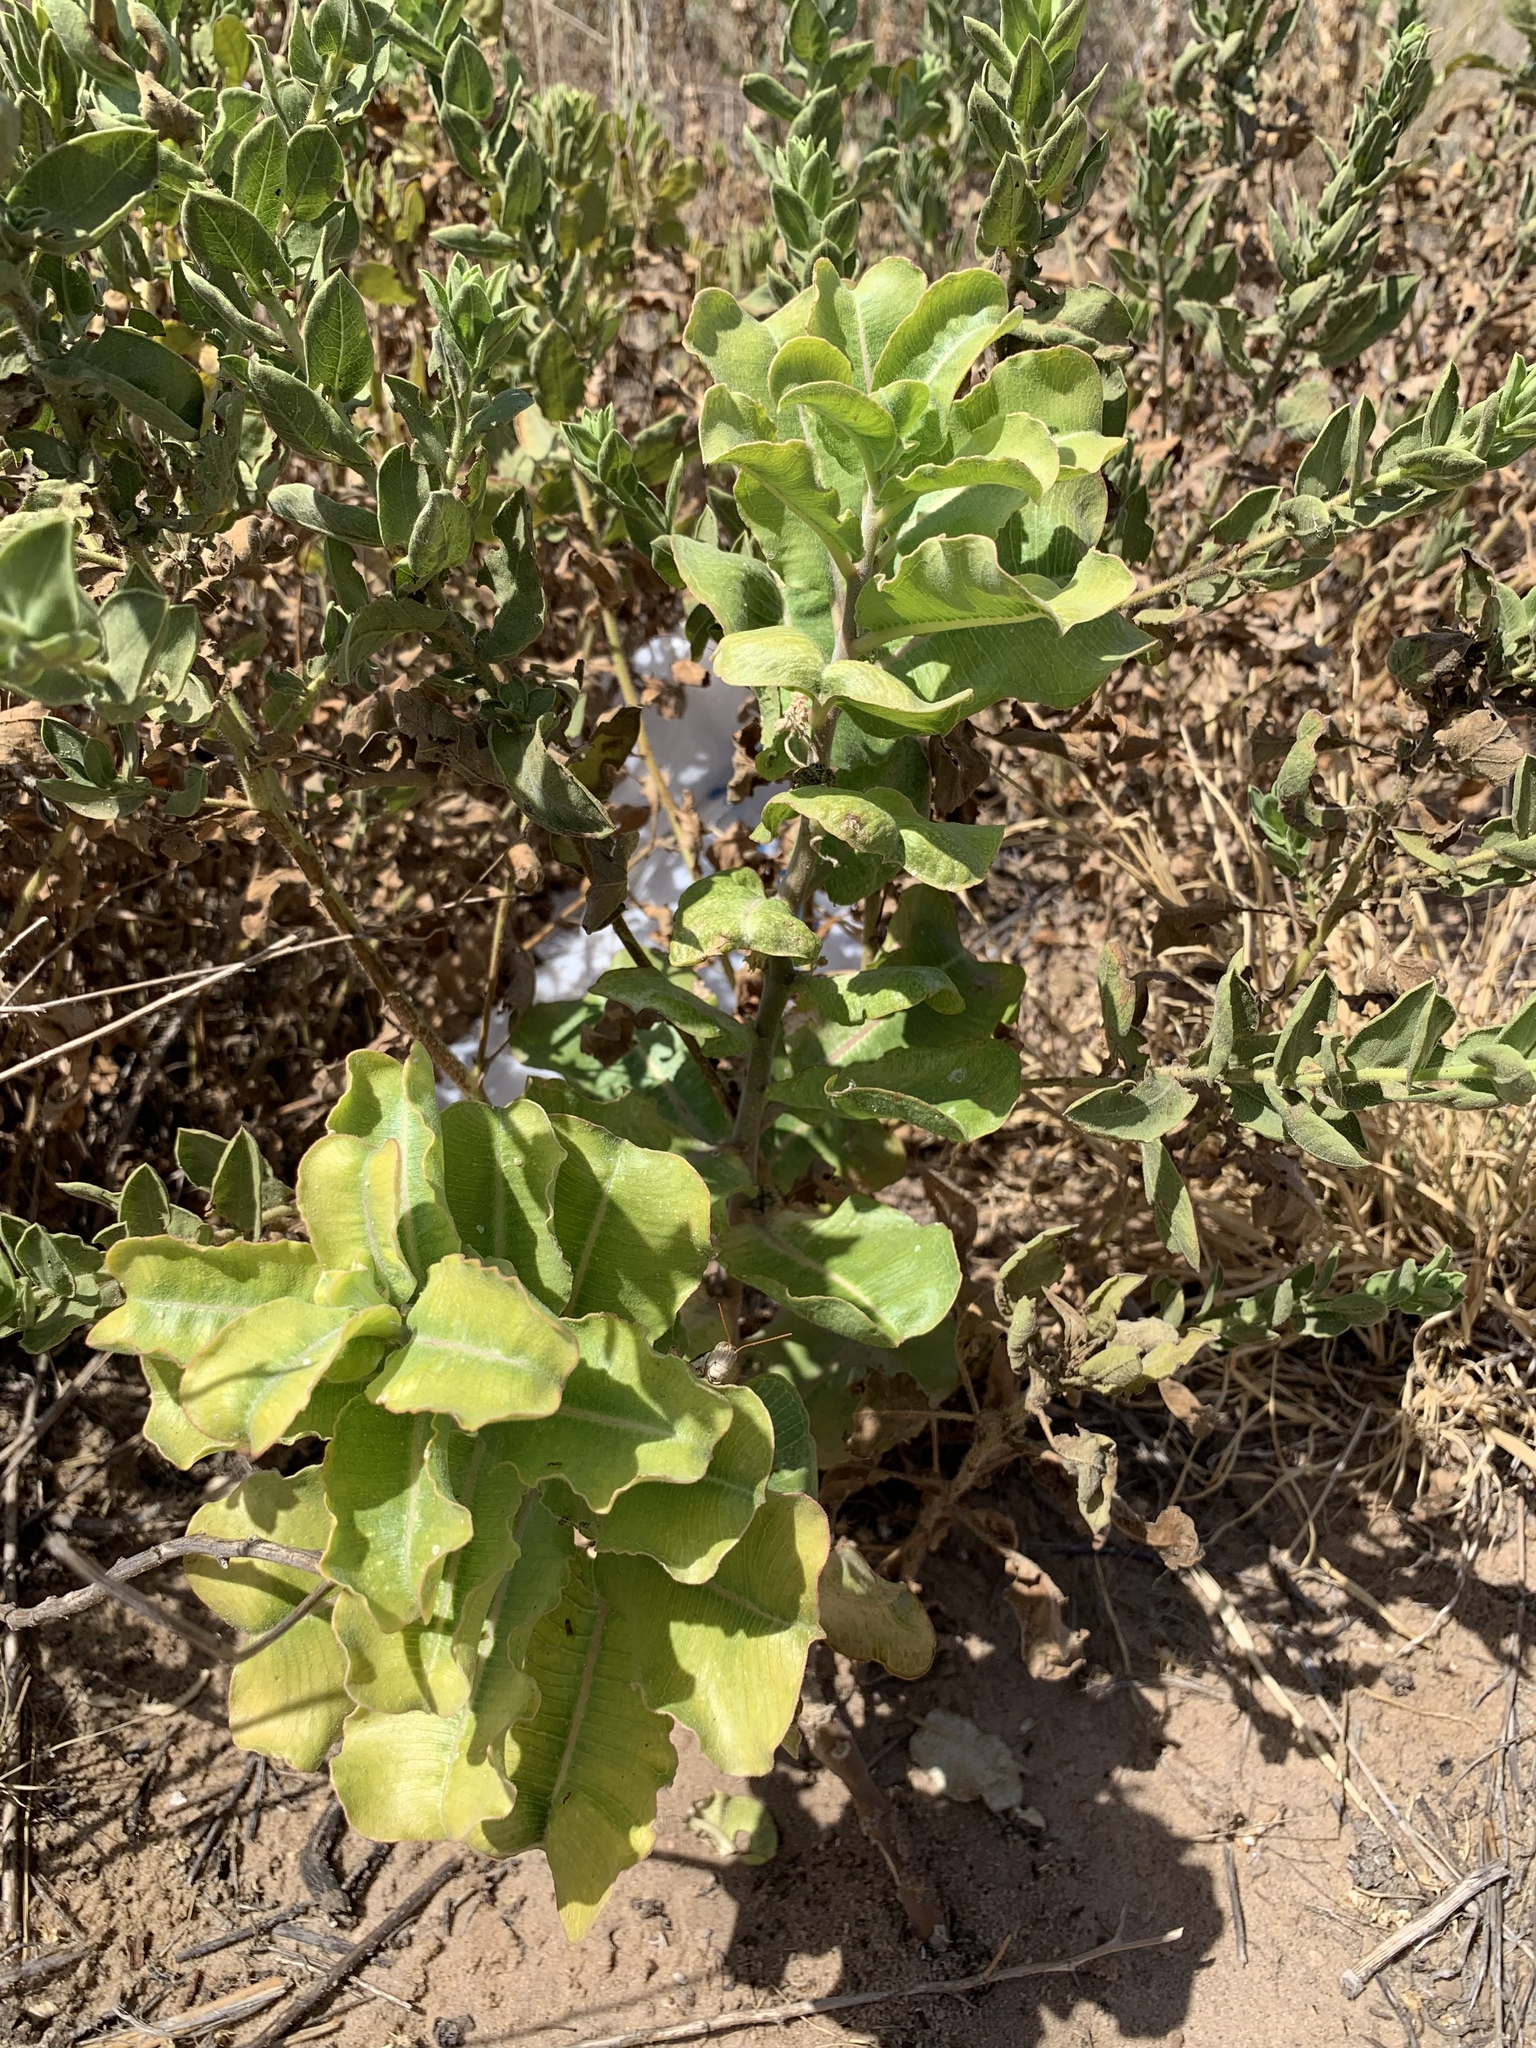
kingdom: Plantae
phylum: Tracheophyta
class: Magnoliopsida
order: Gentianales
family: Apocynaceae
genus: Asclepias
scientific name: Asclepias arenaria
